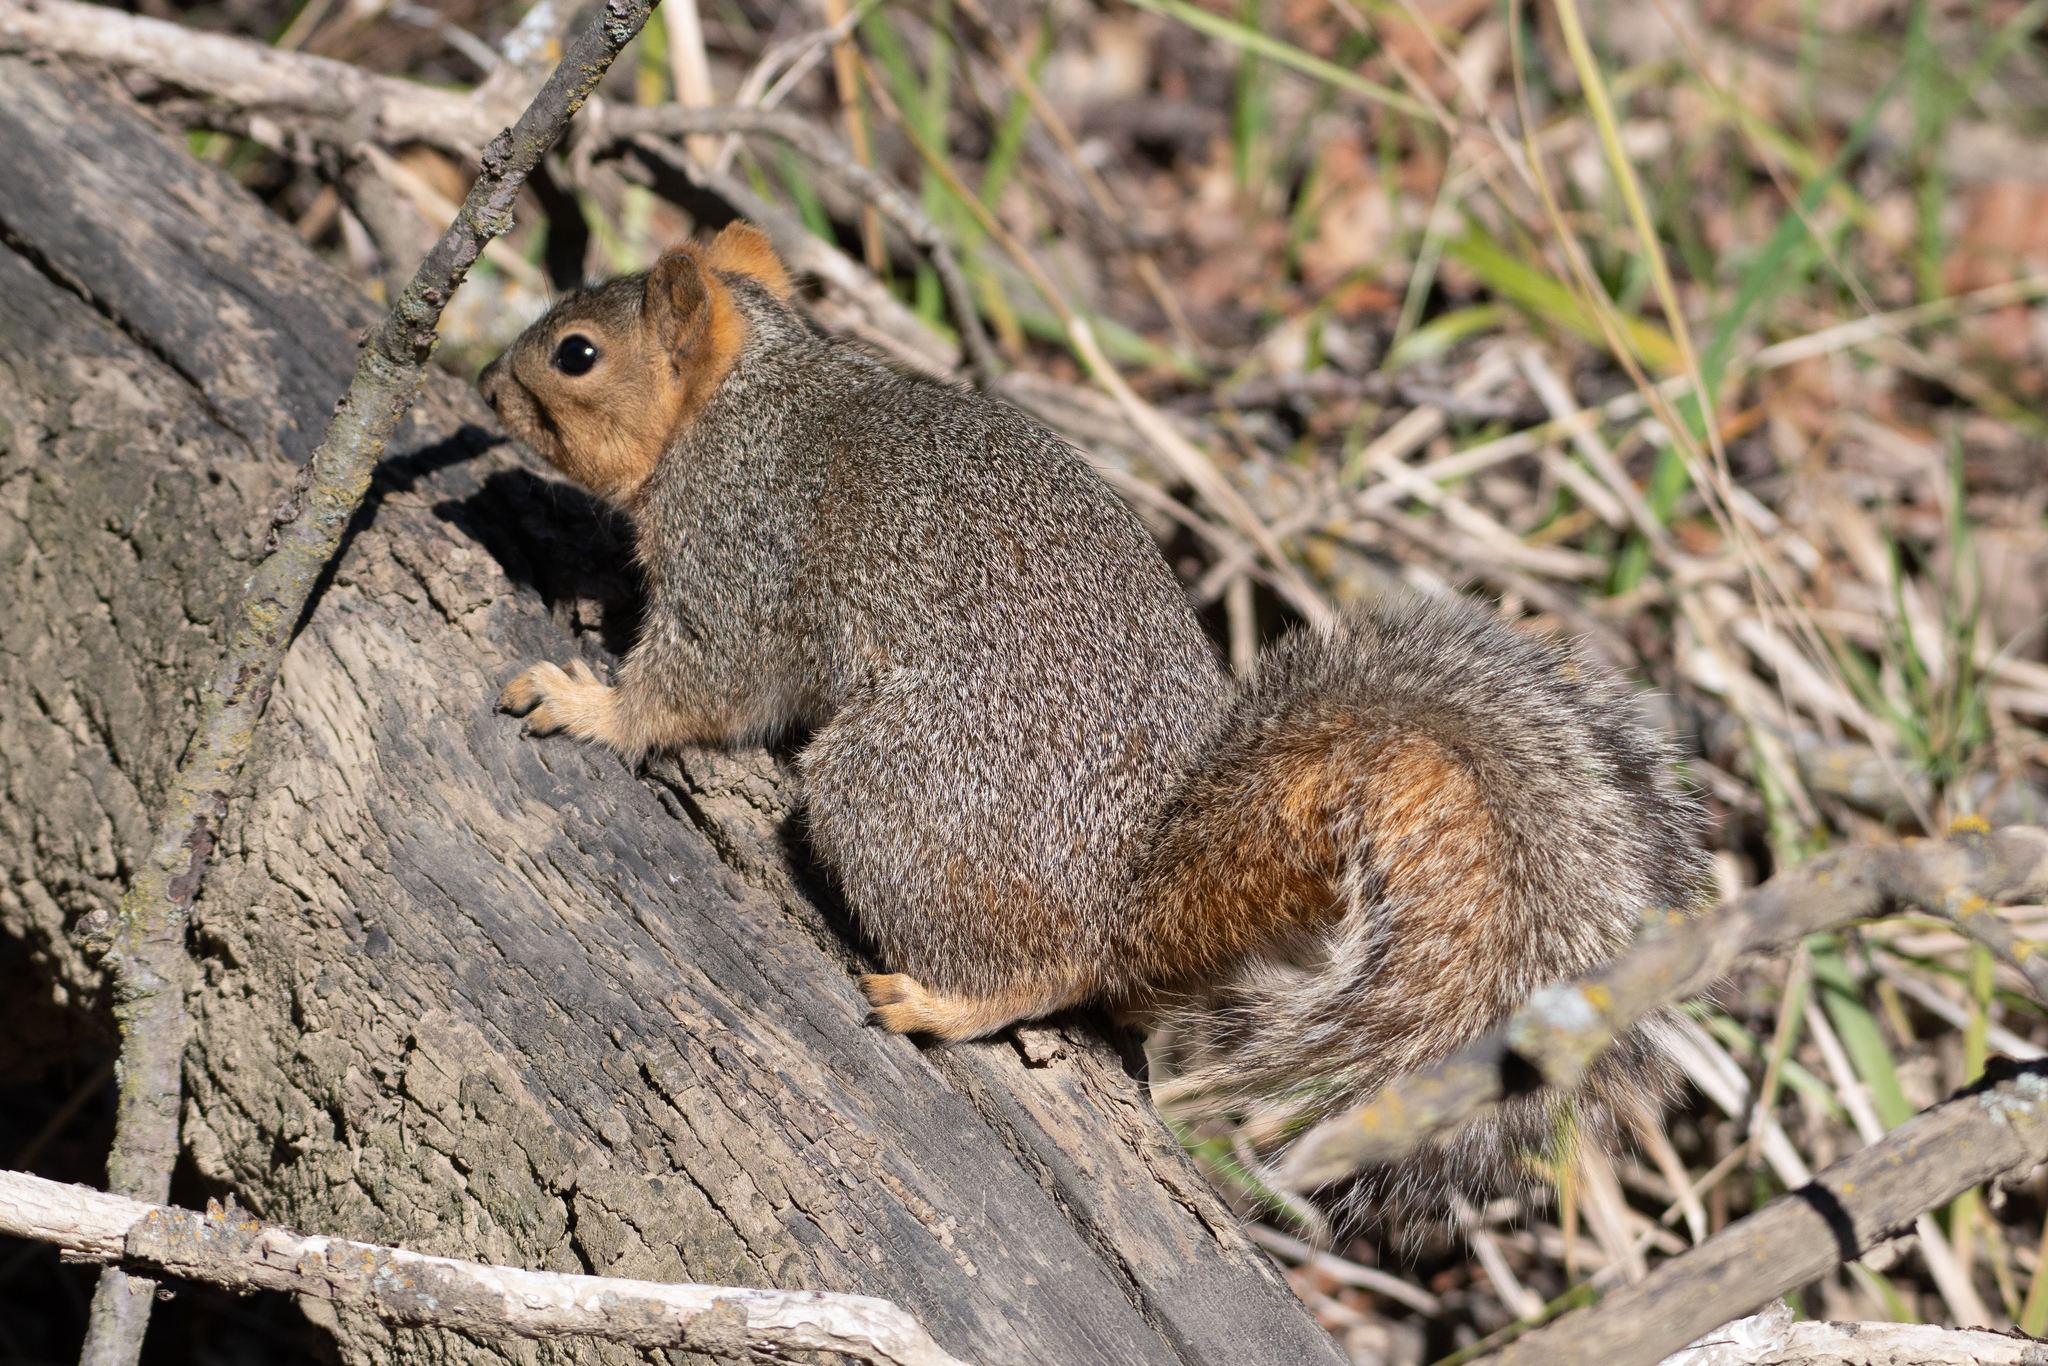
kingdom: Animalia
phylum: Chordata
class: Mammalia
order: Rodentia
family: Sciuridae
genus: Sciurus
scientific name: Sciurus niger
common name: Fox squirrel
